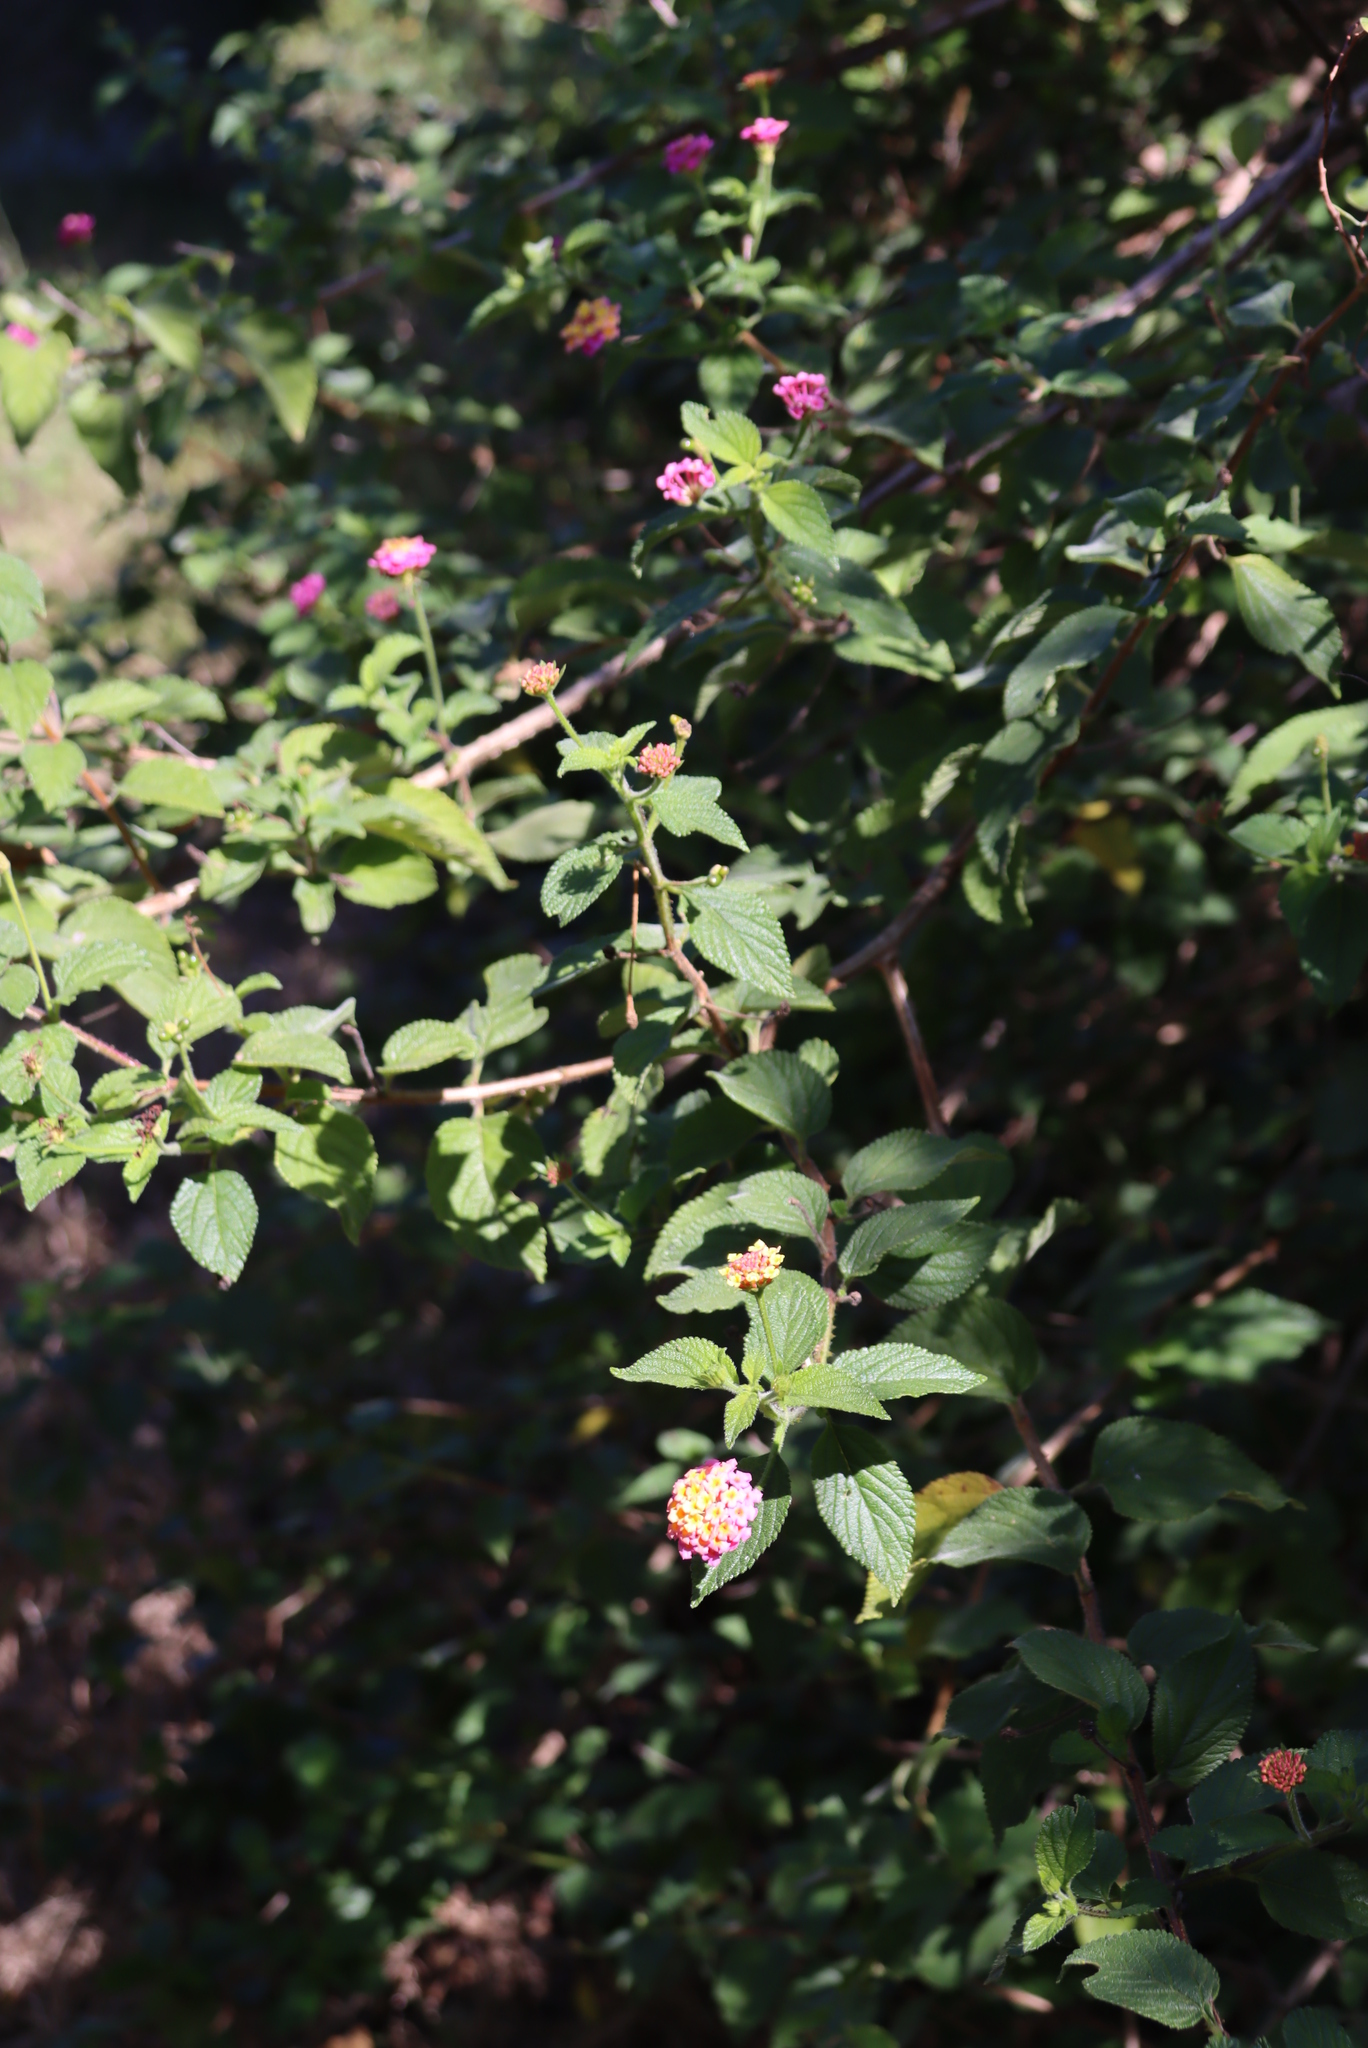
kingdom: Plantae
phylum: Tracheophyta
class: Magnoliopsida
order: Lamiales
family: Verbenaceae
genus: Lantana
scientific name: Lantana camara
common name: Lantana
